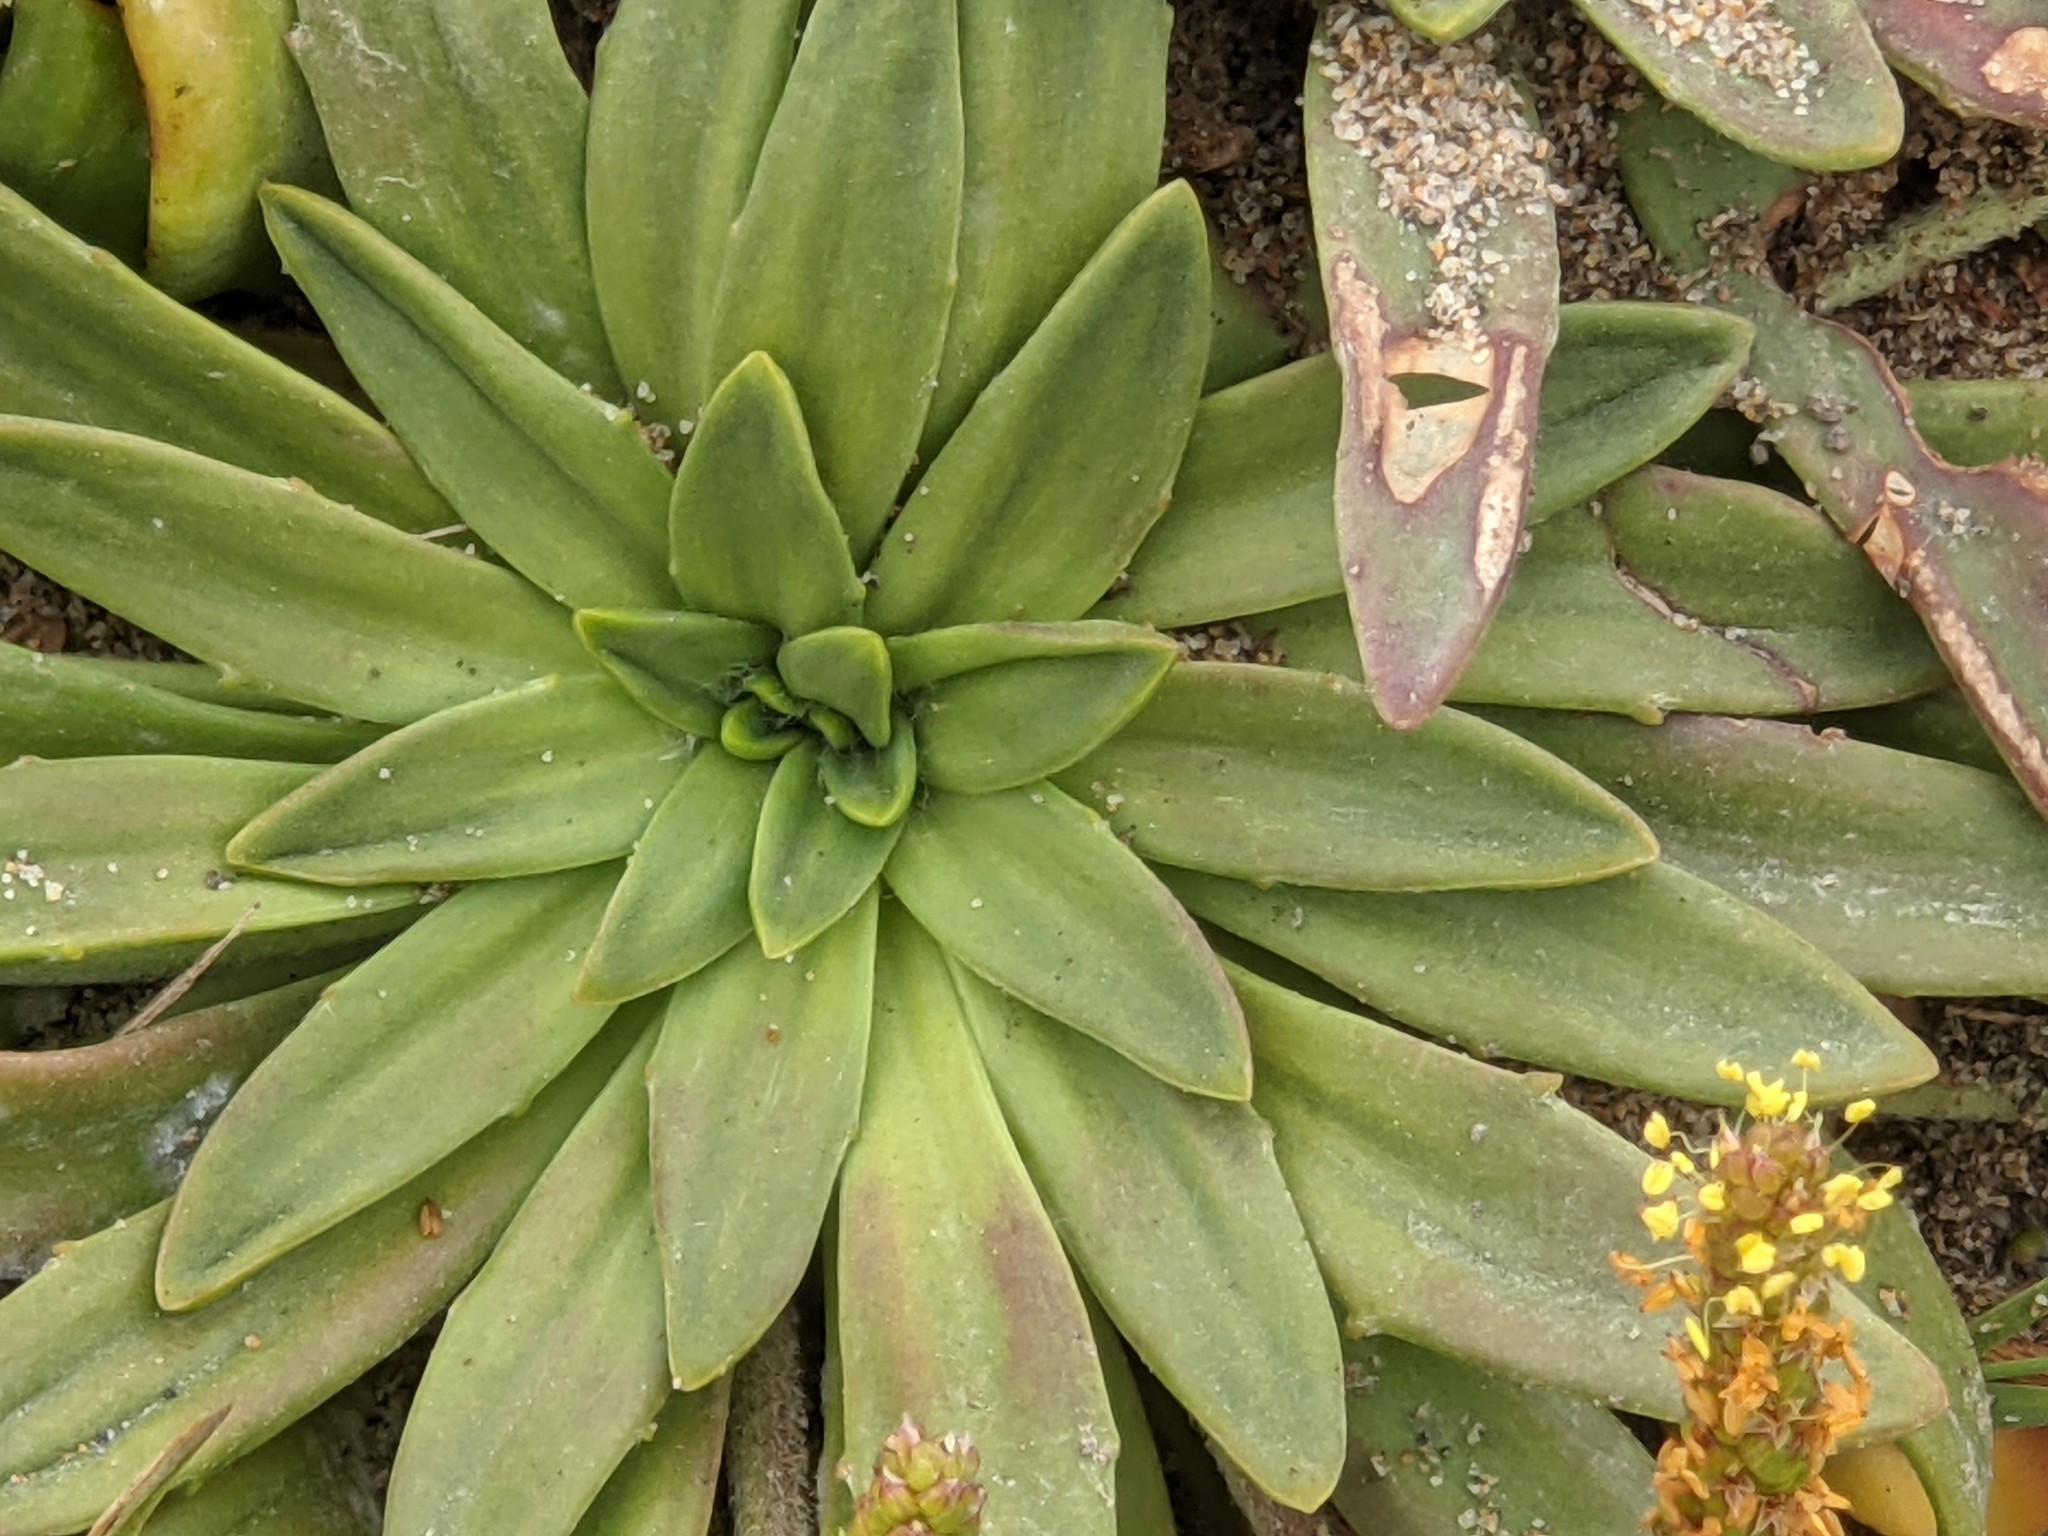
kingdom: Plantae
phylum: Tracheophyta
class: Magnoliopsida
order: Lamiales
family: Plantaginaceae
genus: Plantago
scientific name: Plantago maritima
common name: Sea plantain
